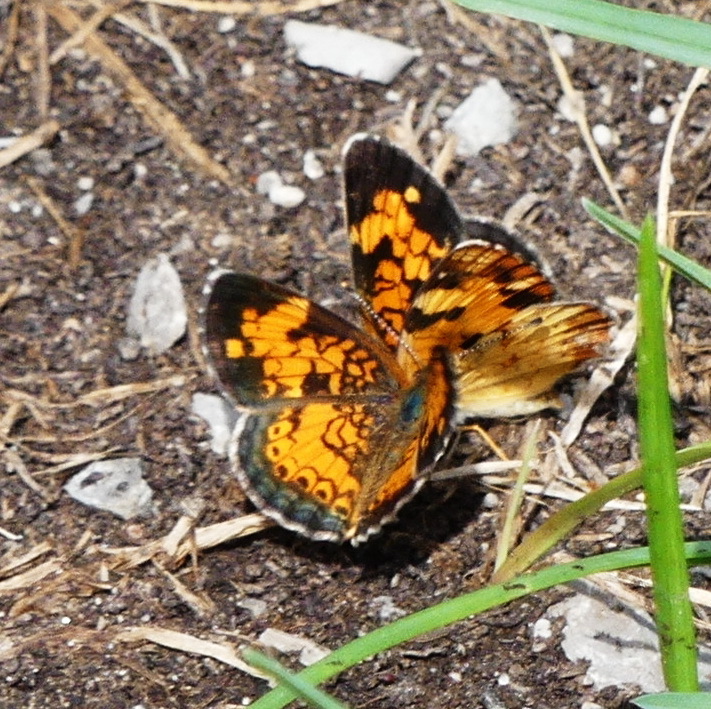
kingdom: Animalia
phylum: Arthropoda
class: Insecta
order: Lepidoptera
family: Nymphalidae
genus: Phyciodes
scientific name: Phyciodes tharos
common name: Pearl crescent
